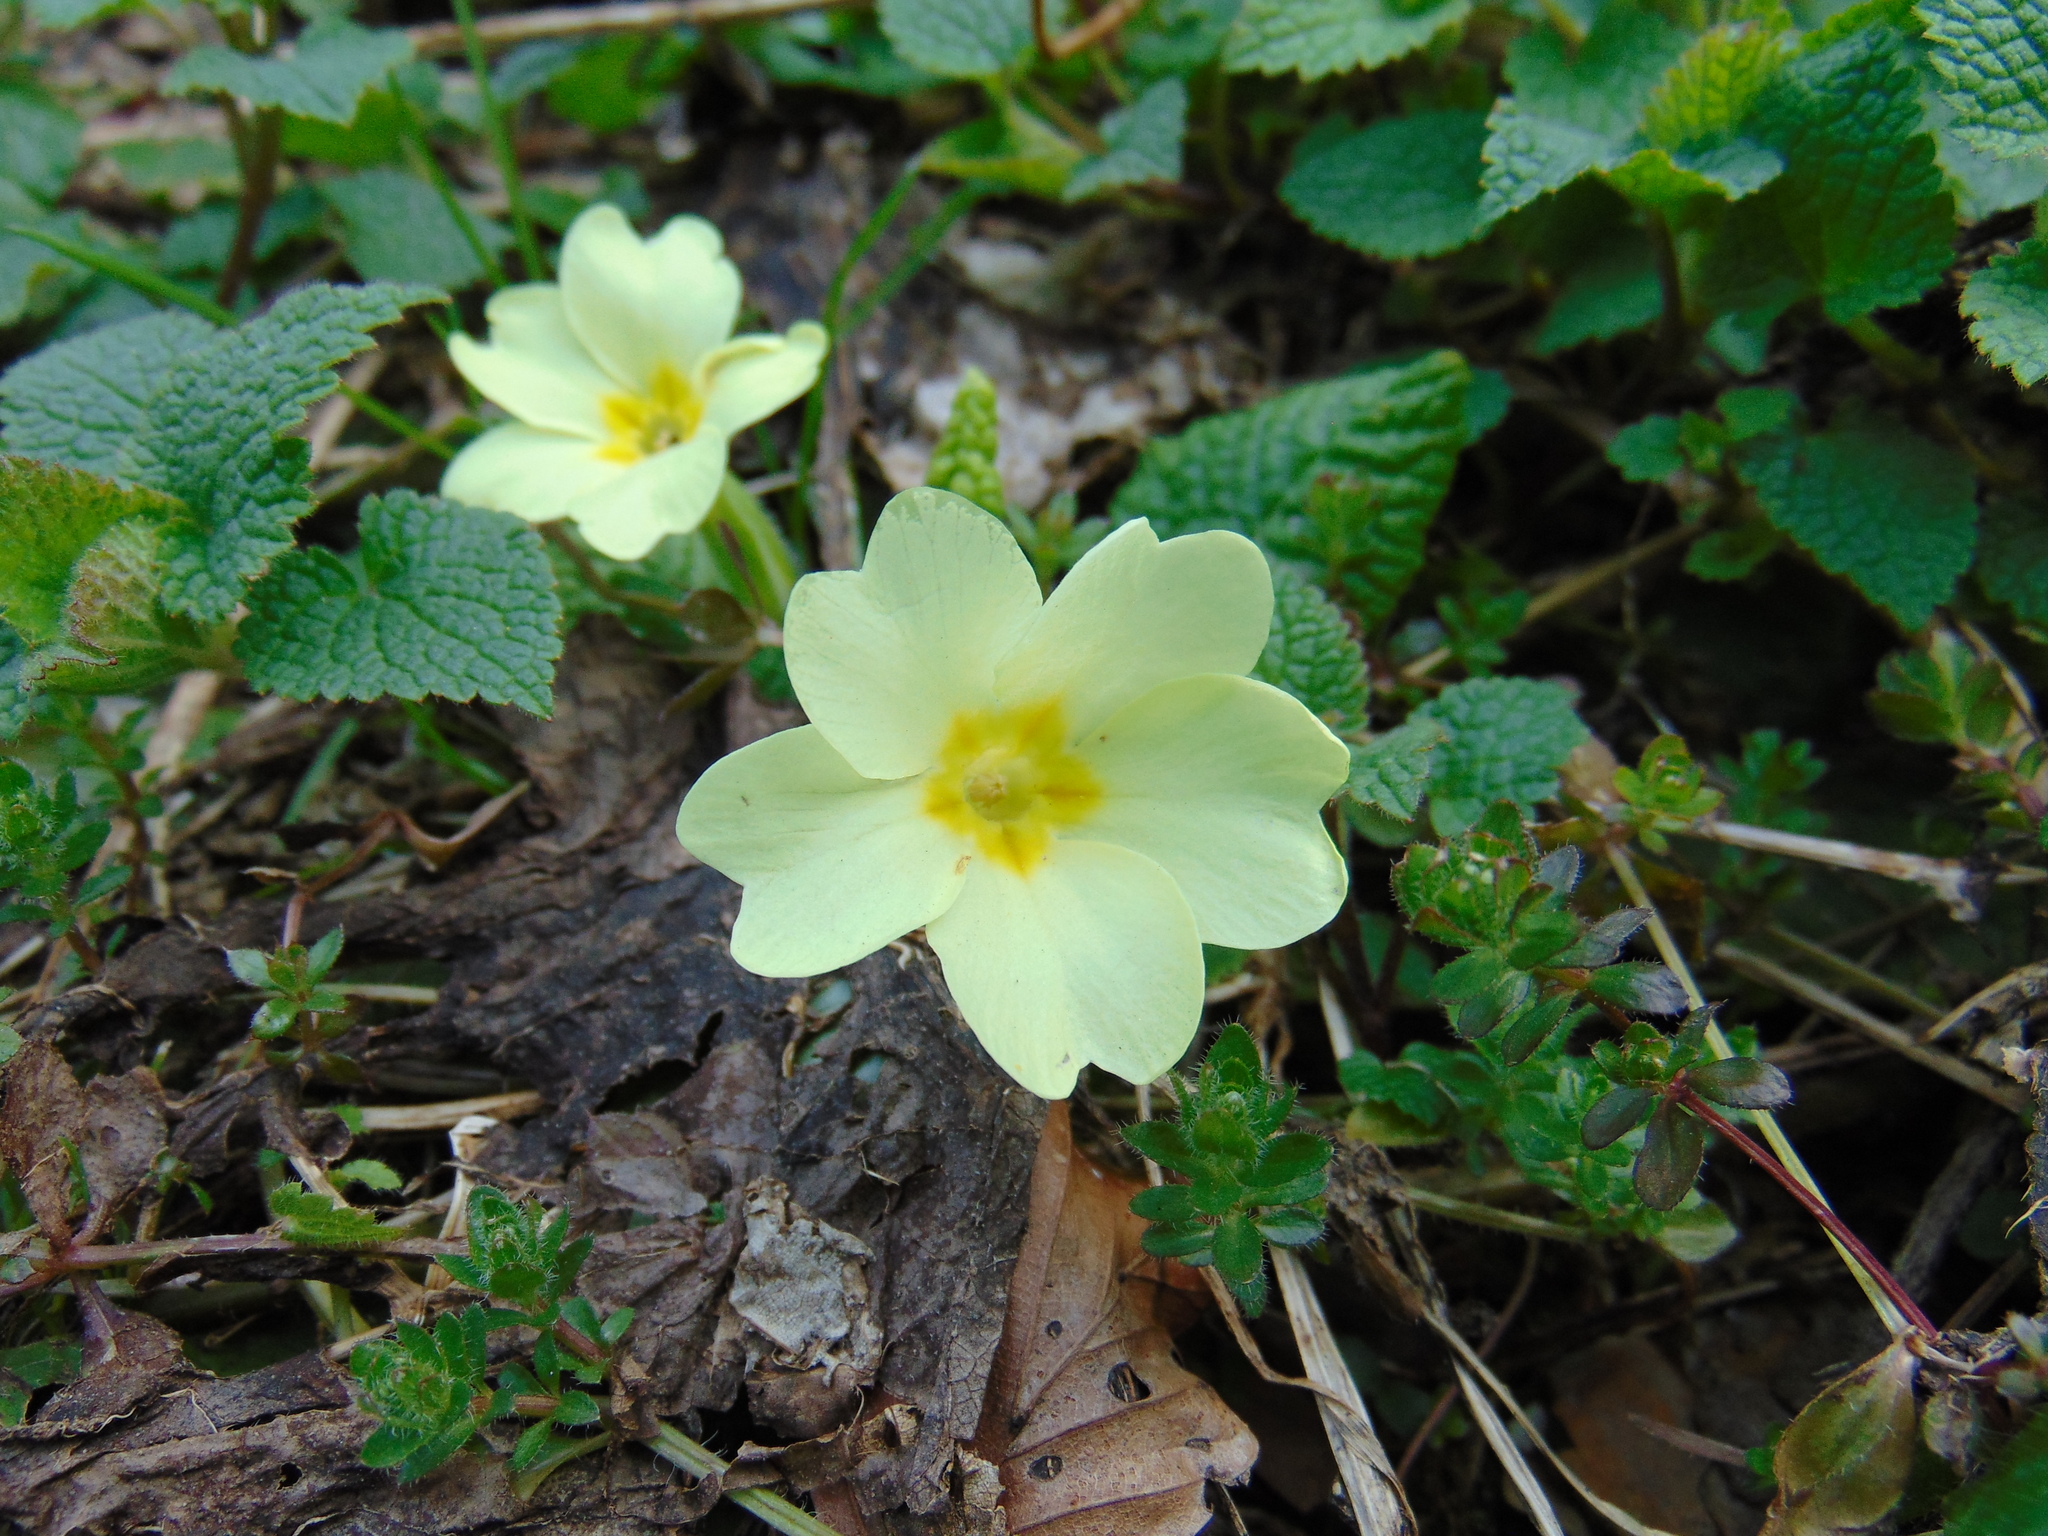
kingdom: Plantae
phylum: Tracheophyta
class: Magnoliopsida
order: Ericales
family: Primulaceae
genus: Primula
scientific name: Primula vulgaris
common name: Primrose
